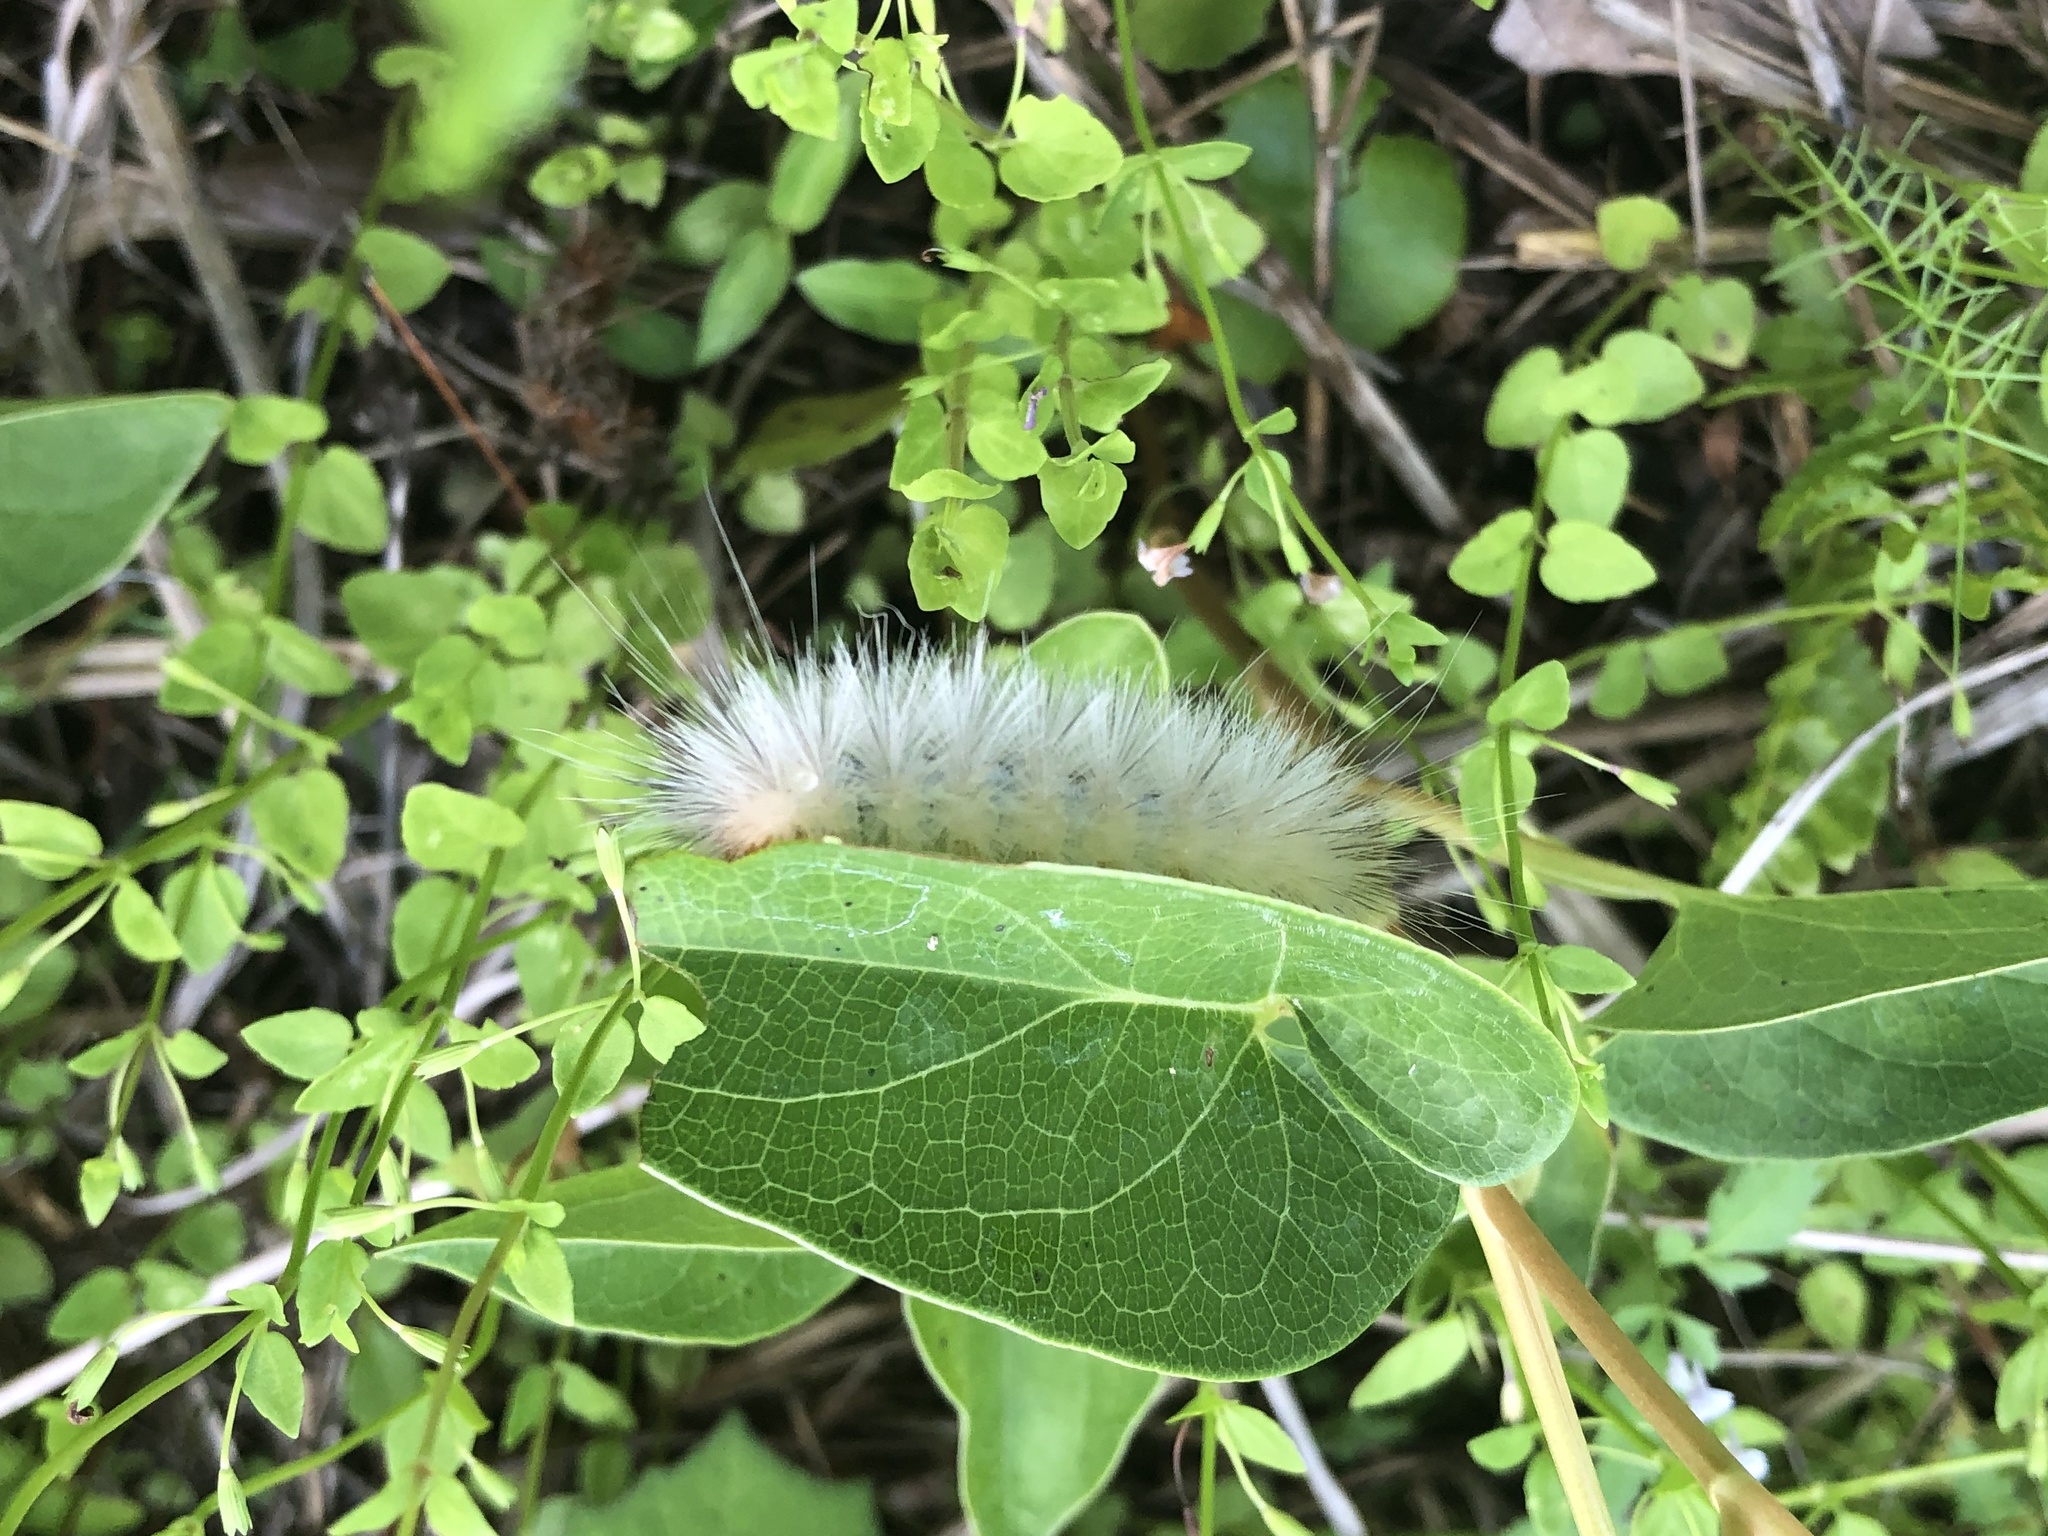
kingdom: Animalia
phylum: Arthropoda
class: Insecta
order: Lepidoptera
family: Erebidae
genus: Spilosoma
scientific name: Spilosoma virginica
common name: Virginia tiger moth
